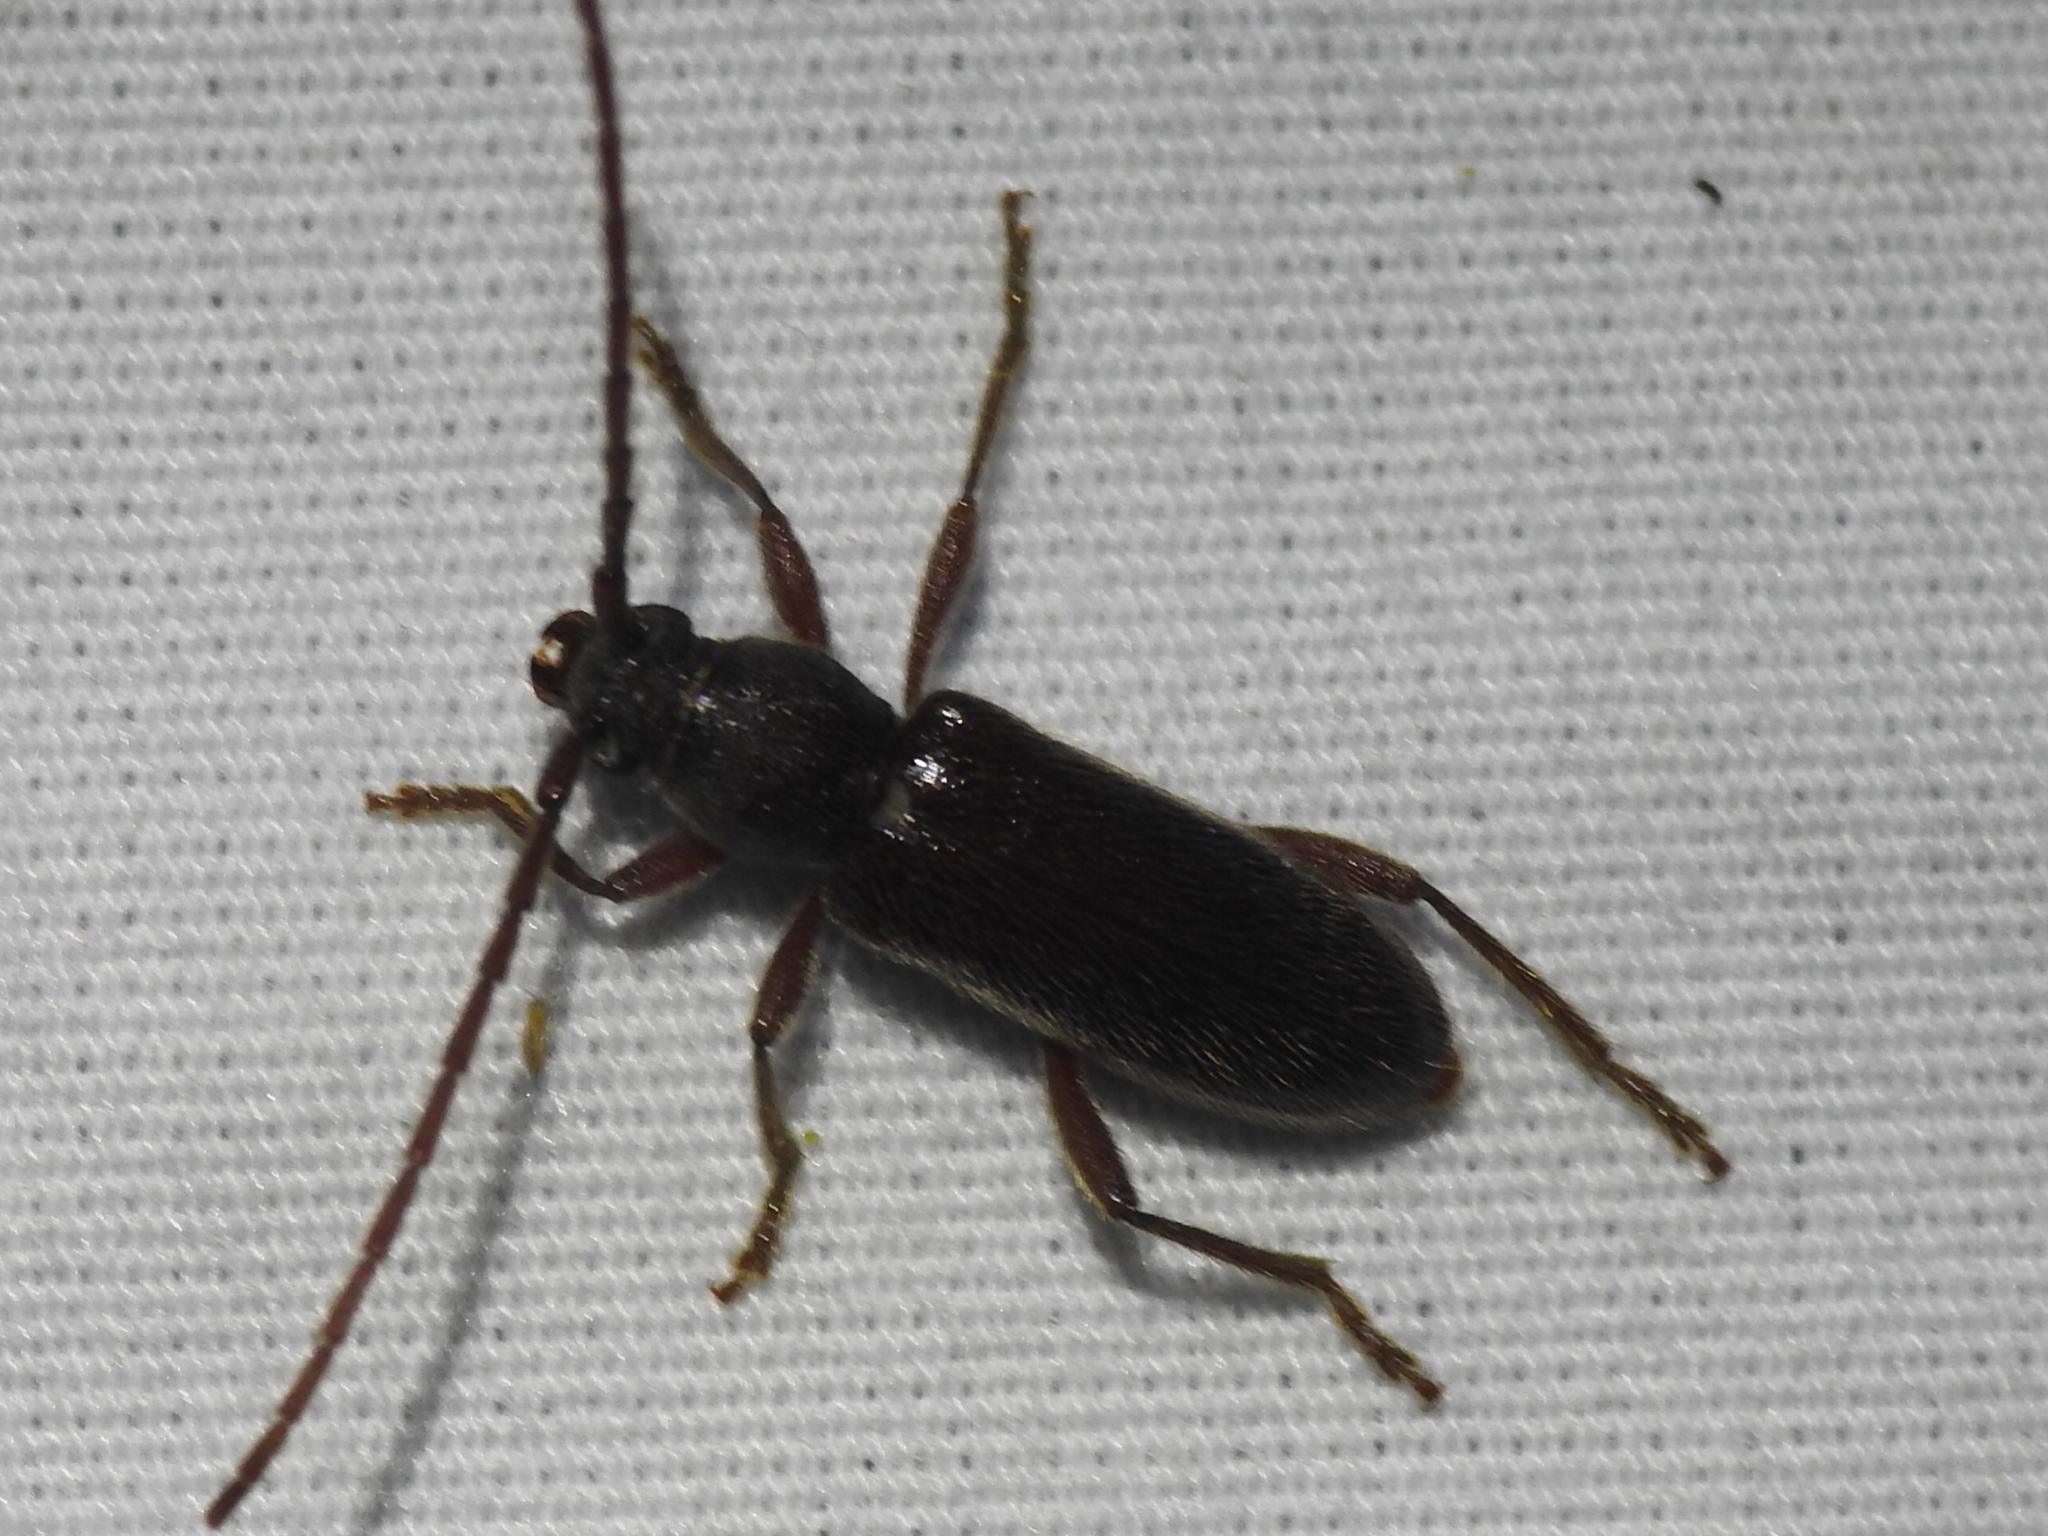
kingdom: Animalia
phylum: Arthropoda
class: Insecta
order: Coleoptera
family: Cerambycidae
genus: Anelaphus
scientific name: Anelaphus moestus
